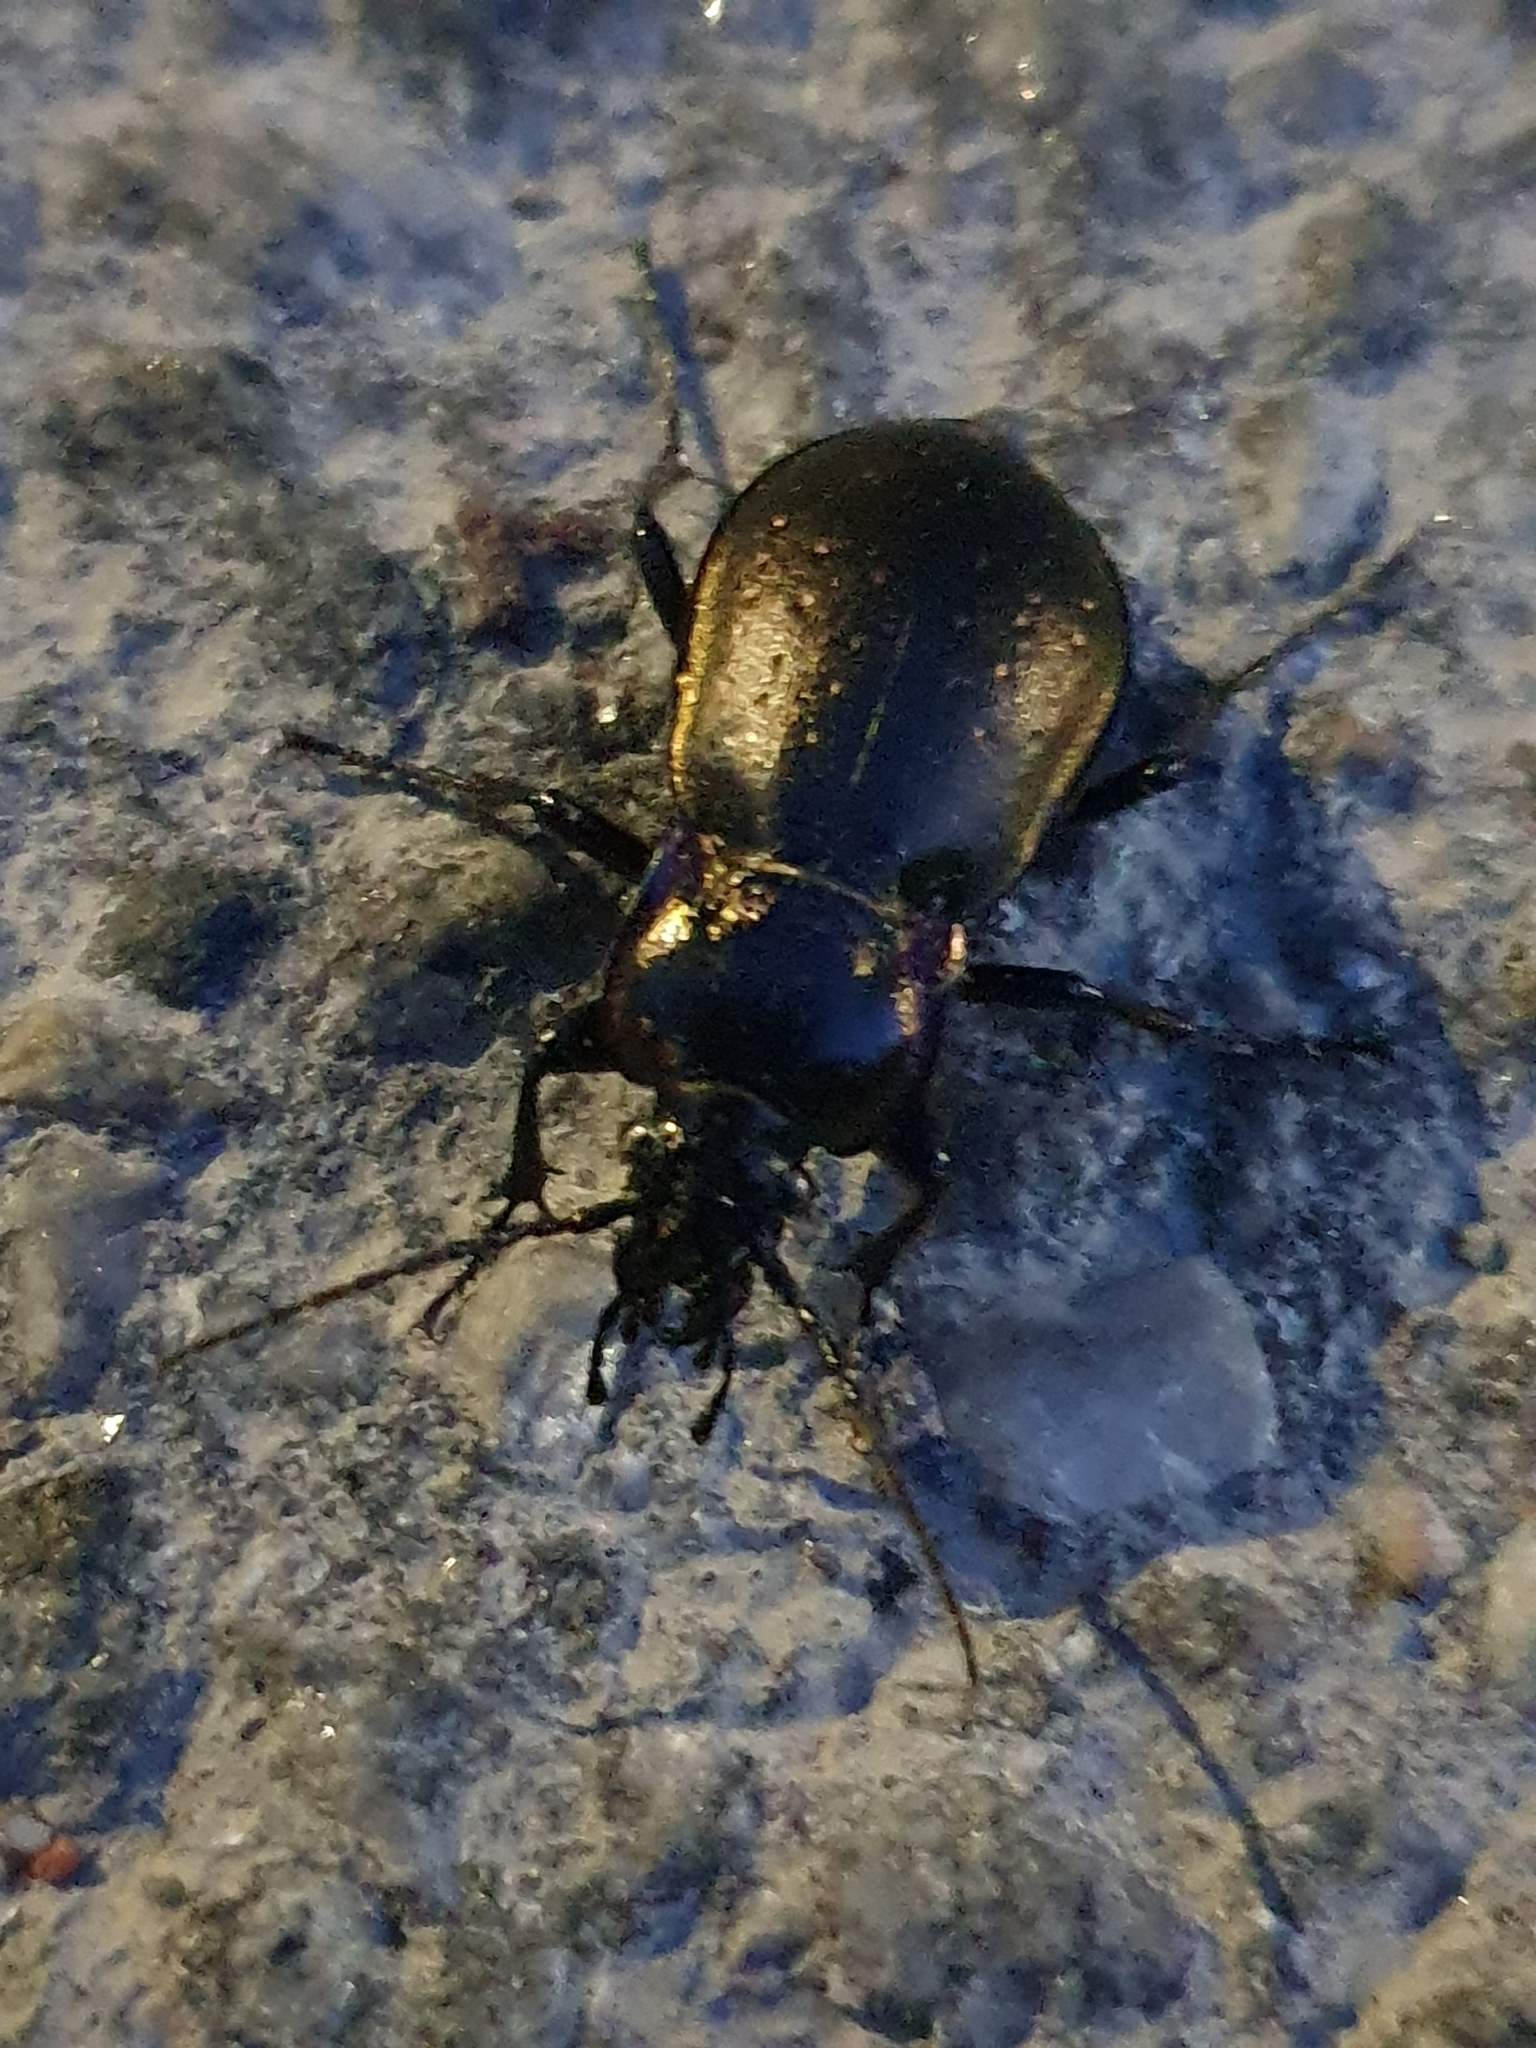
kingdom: Animalia
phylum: Arthropoda
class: Insecta
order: Coleoptera
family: Carabidae
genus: Carabus
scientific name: Carabus nemoralis
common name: European ground beetle
